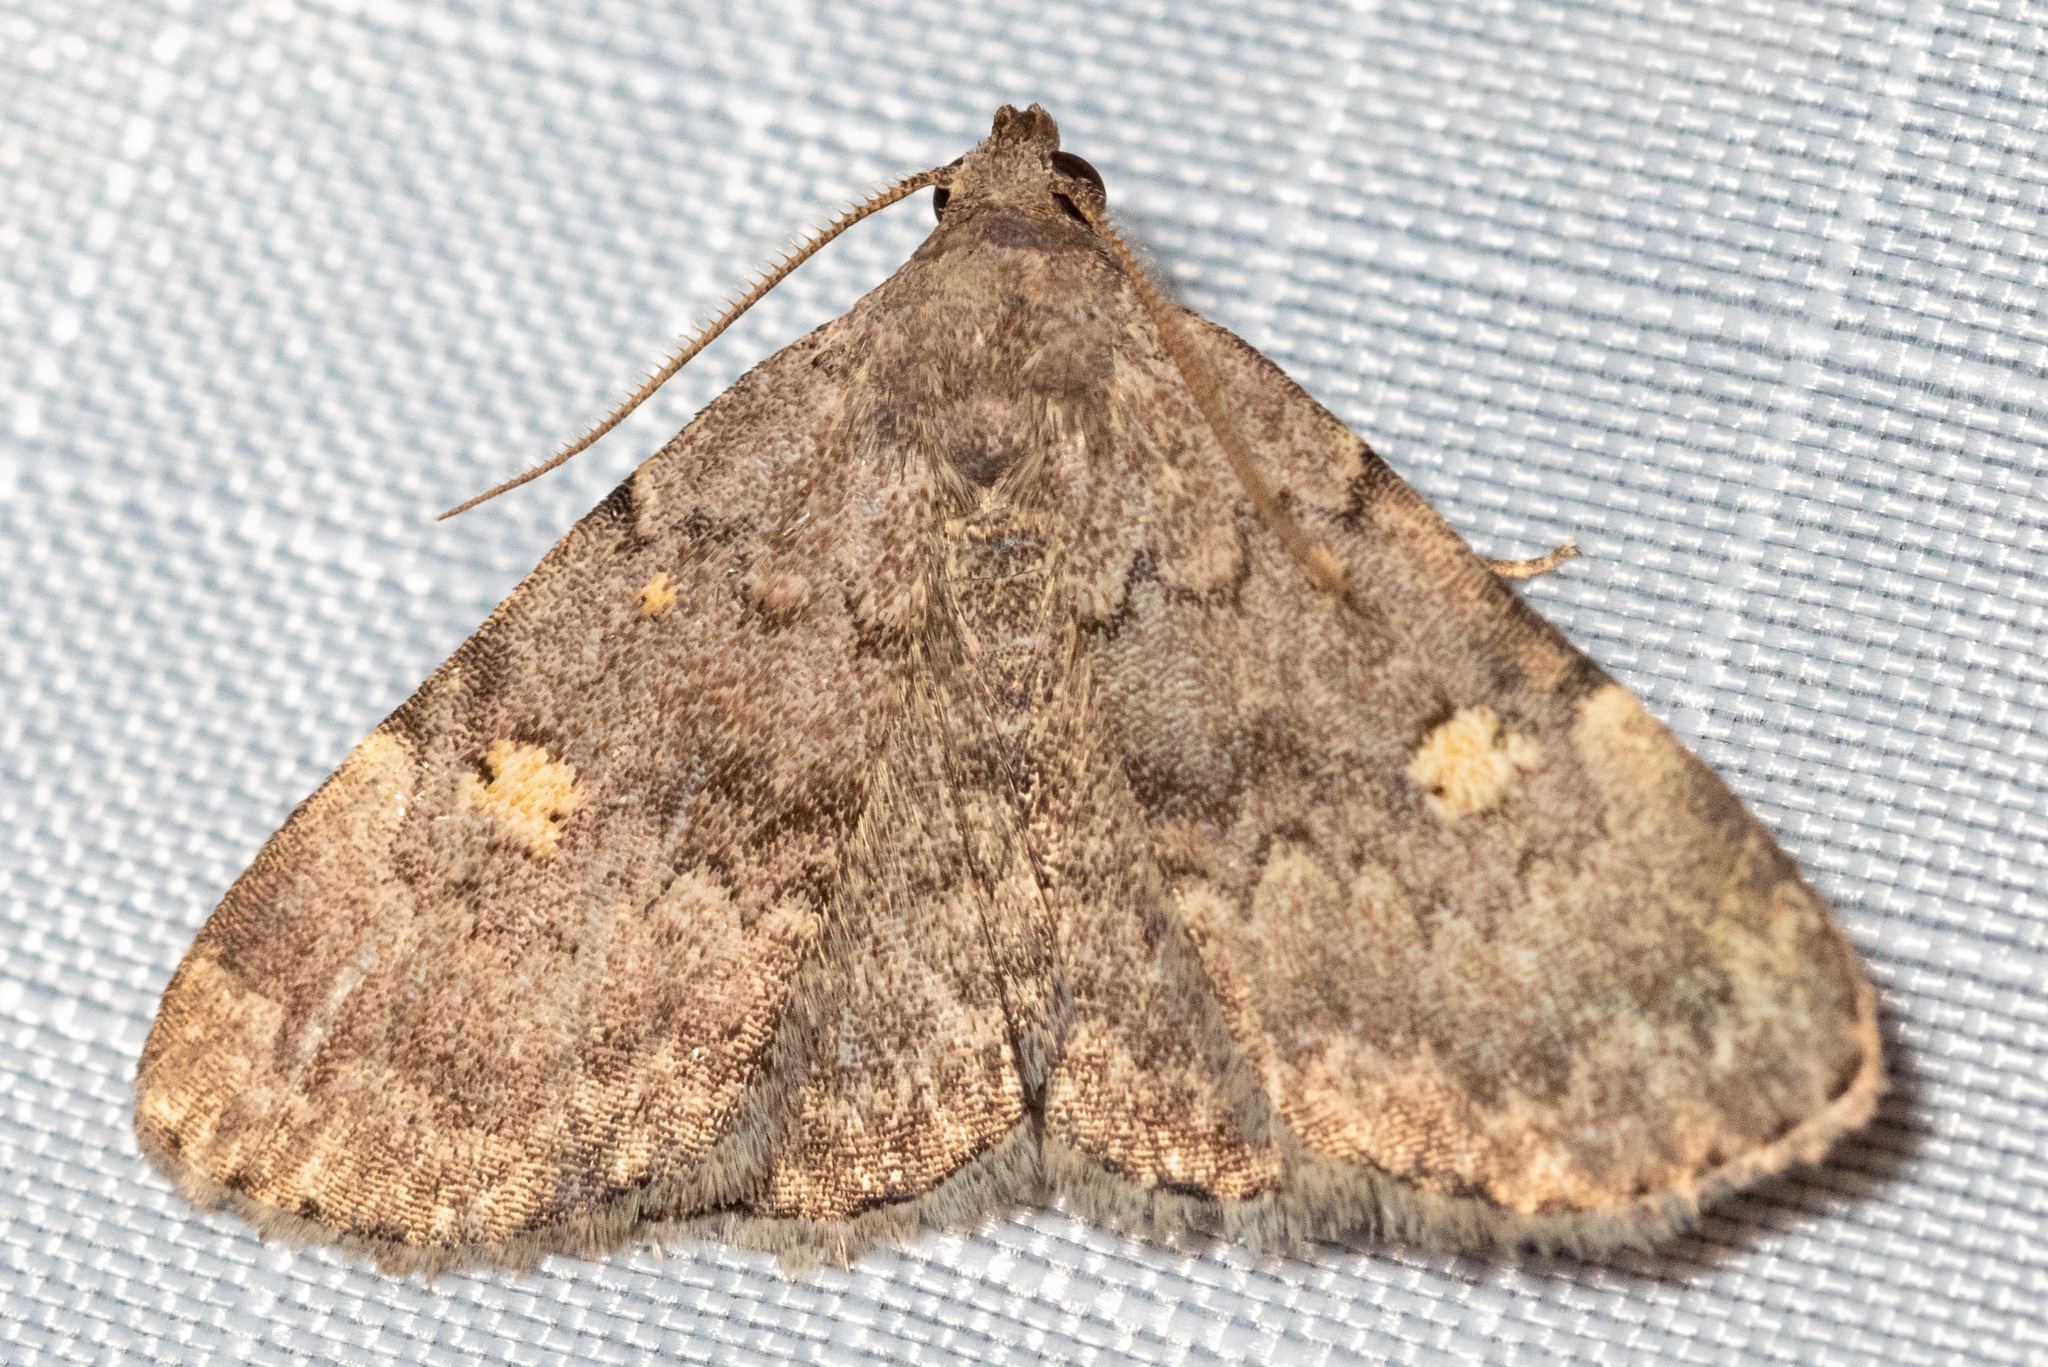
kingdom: Animalia
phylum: Arthropoda
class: Insecta
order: Lepidoptera
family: Erebidae
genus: Idia
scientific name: Idia aemula
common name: Common idia moth
